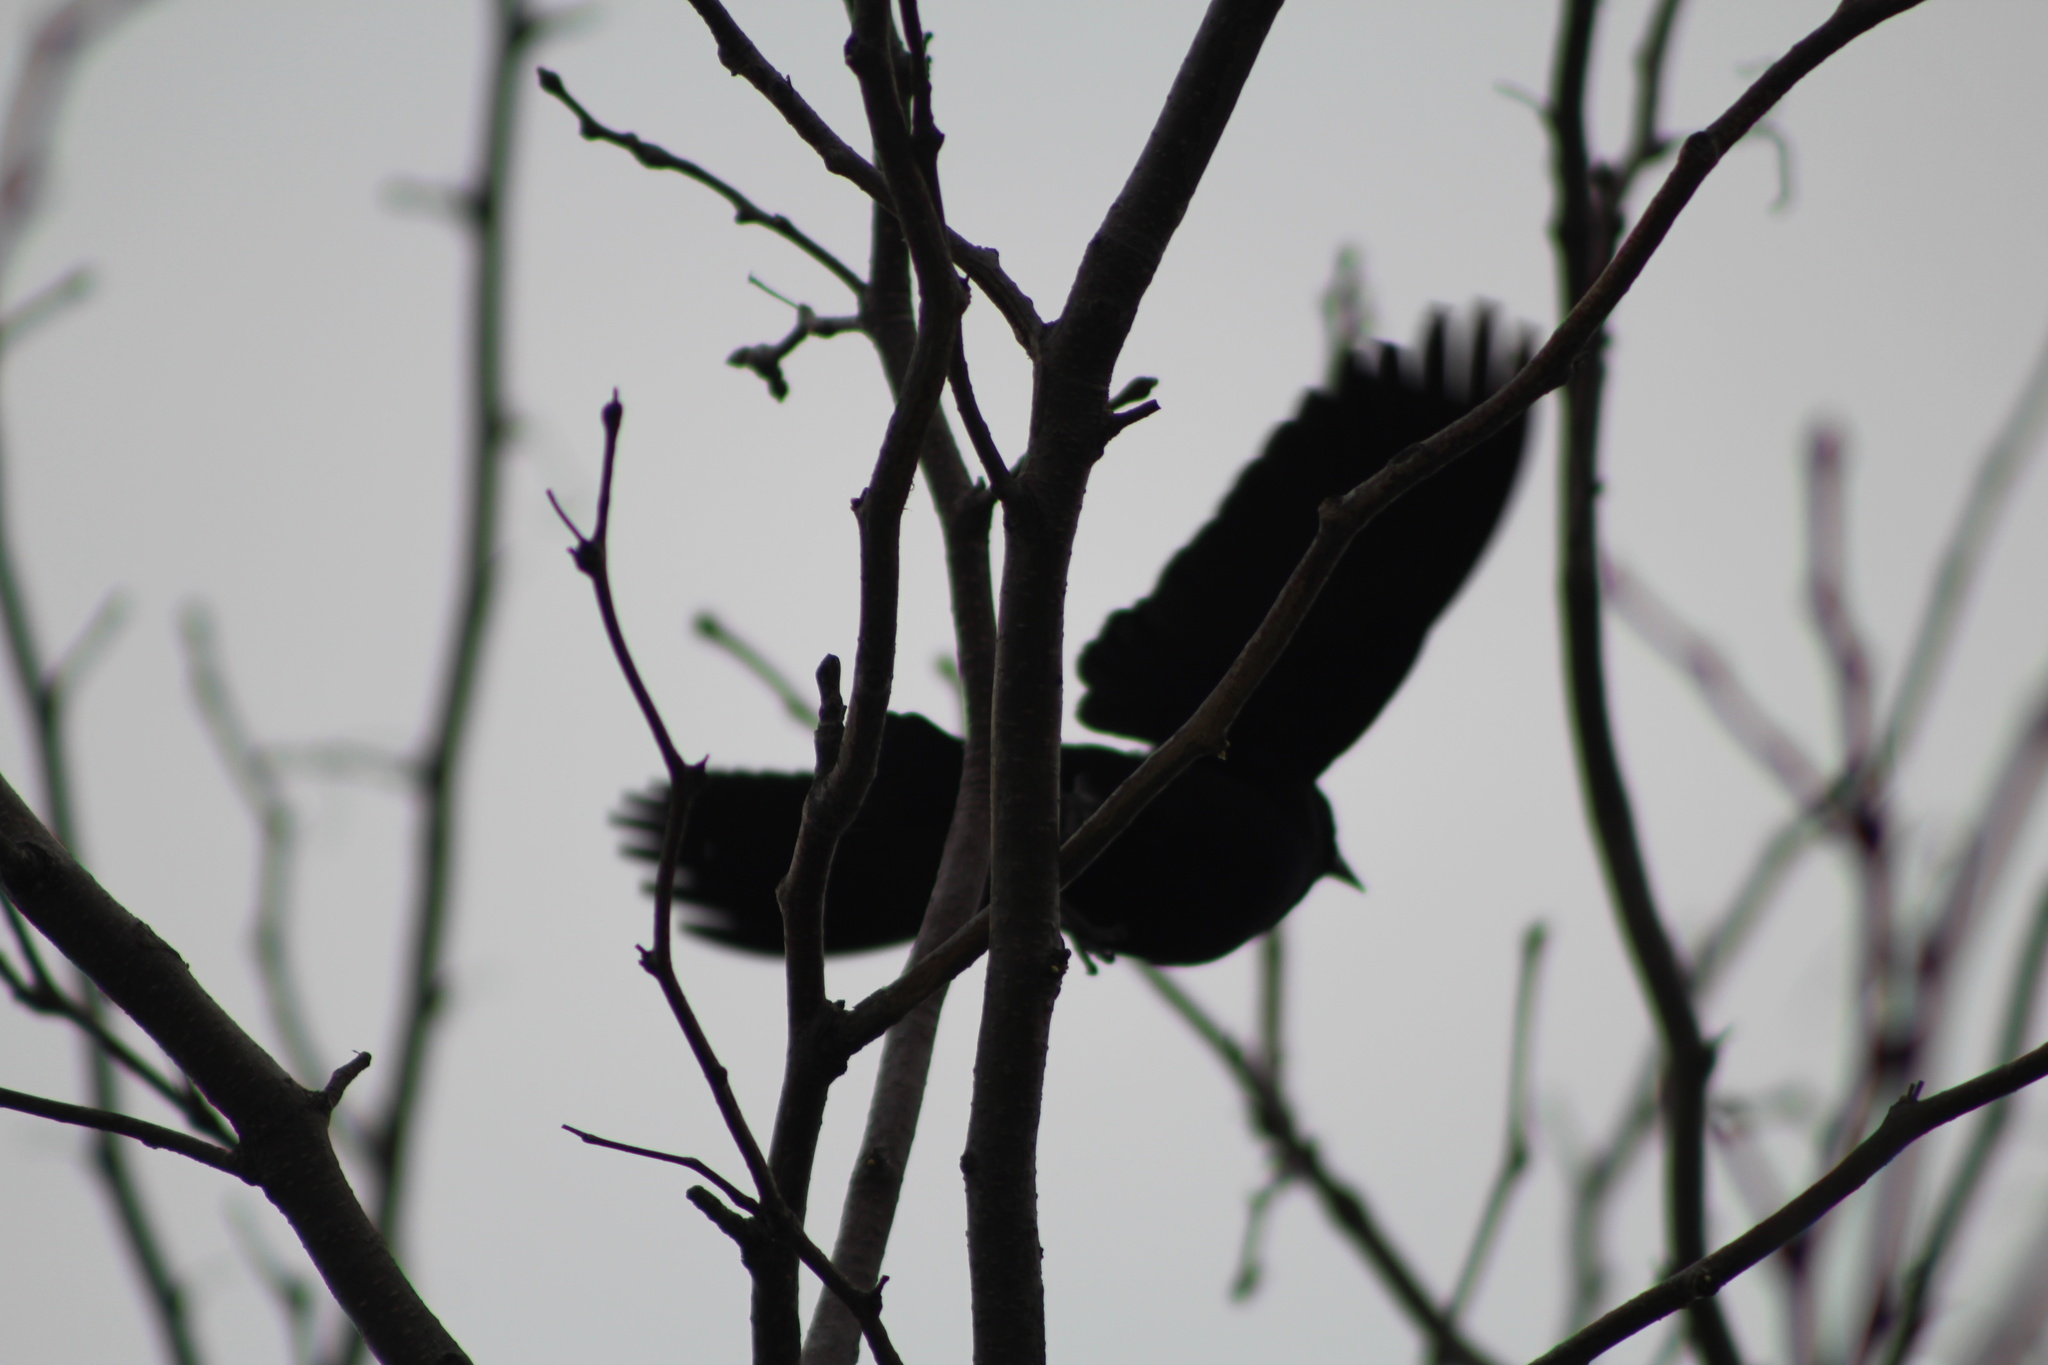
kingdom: Animalia
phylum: Chordata
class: Aves
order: Passeriformes
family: Icteridae
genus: Agelaius
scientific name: Agelaius phoeniceus
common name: Red-winged blackbird
